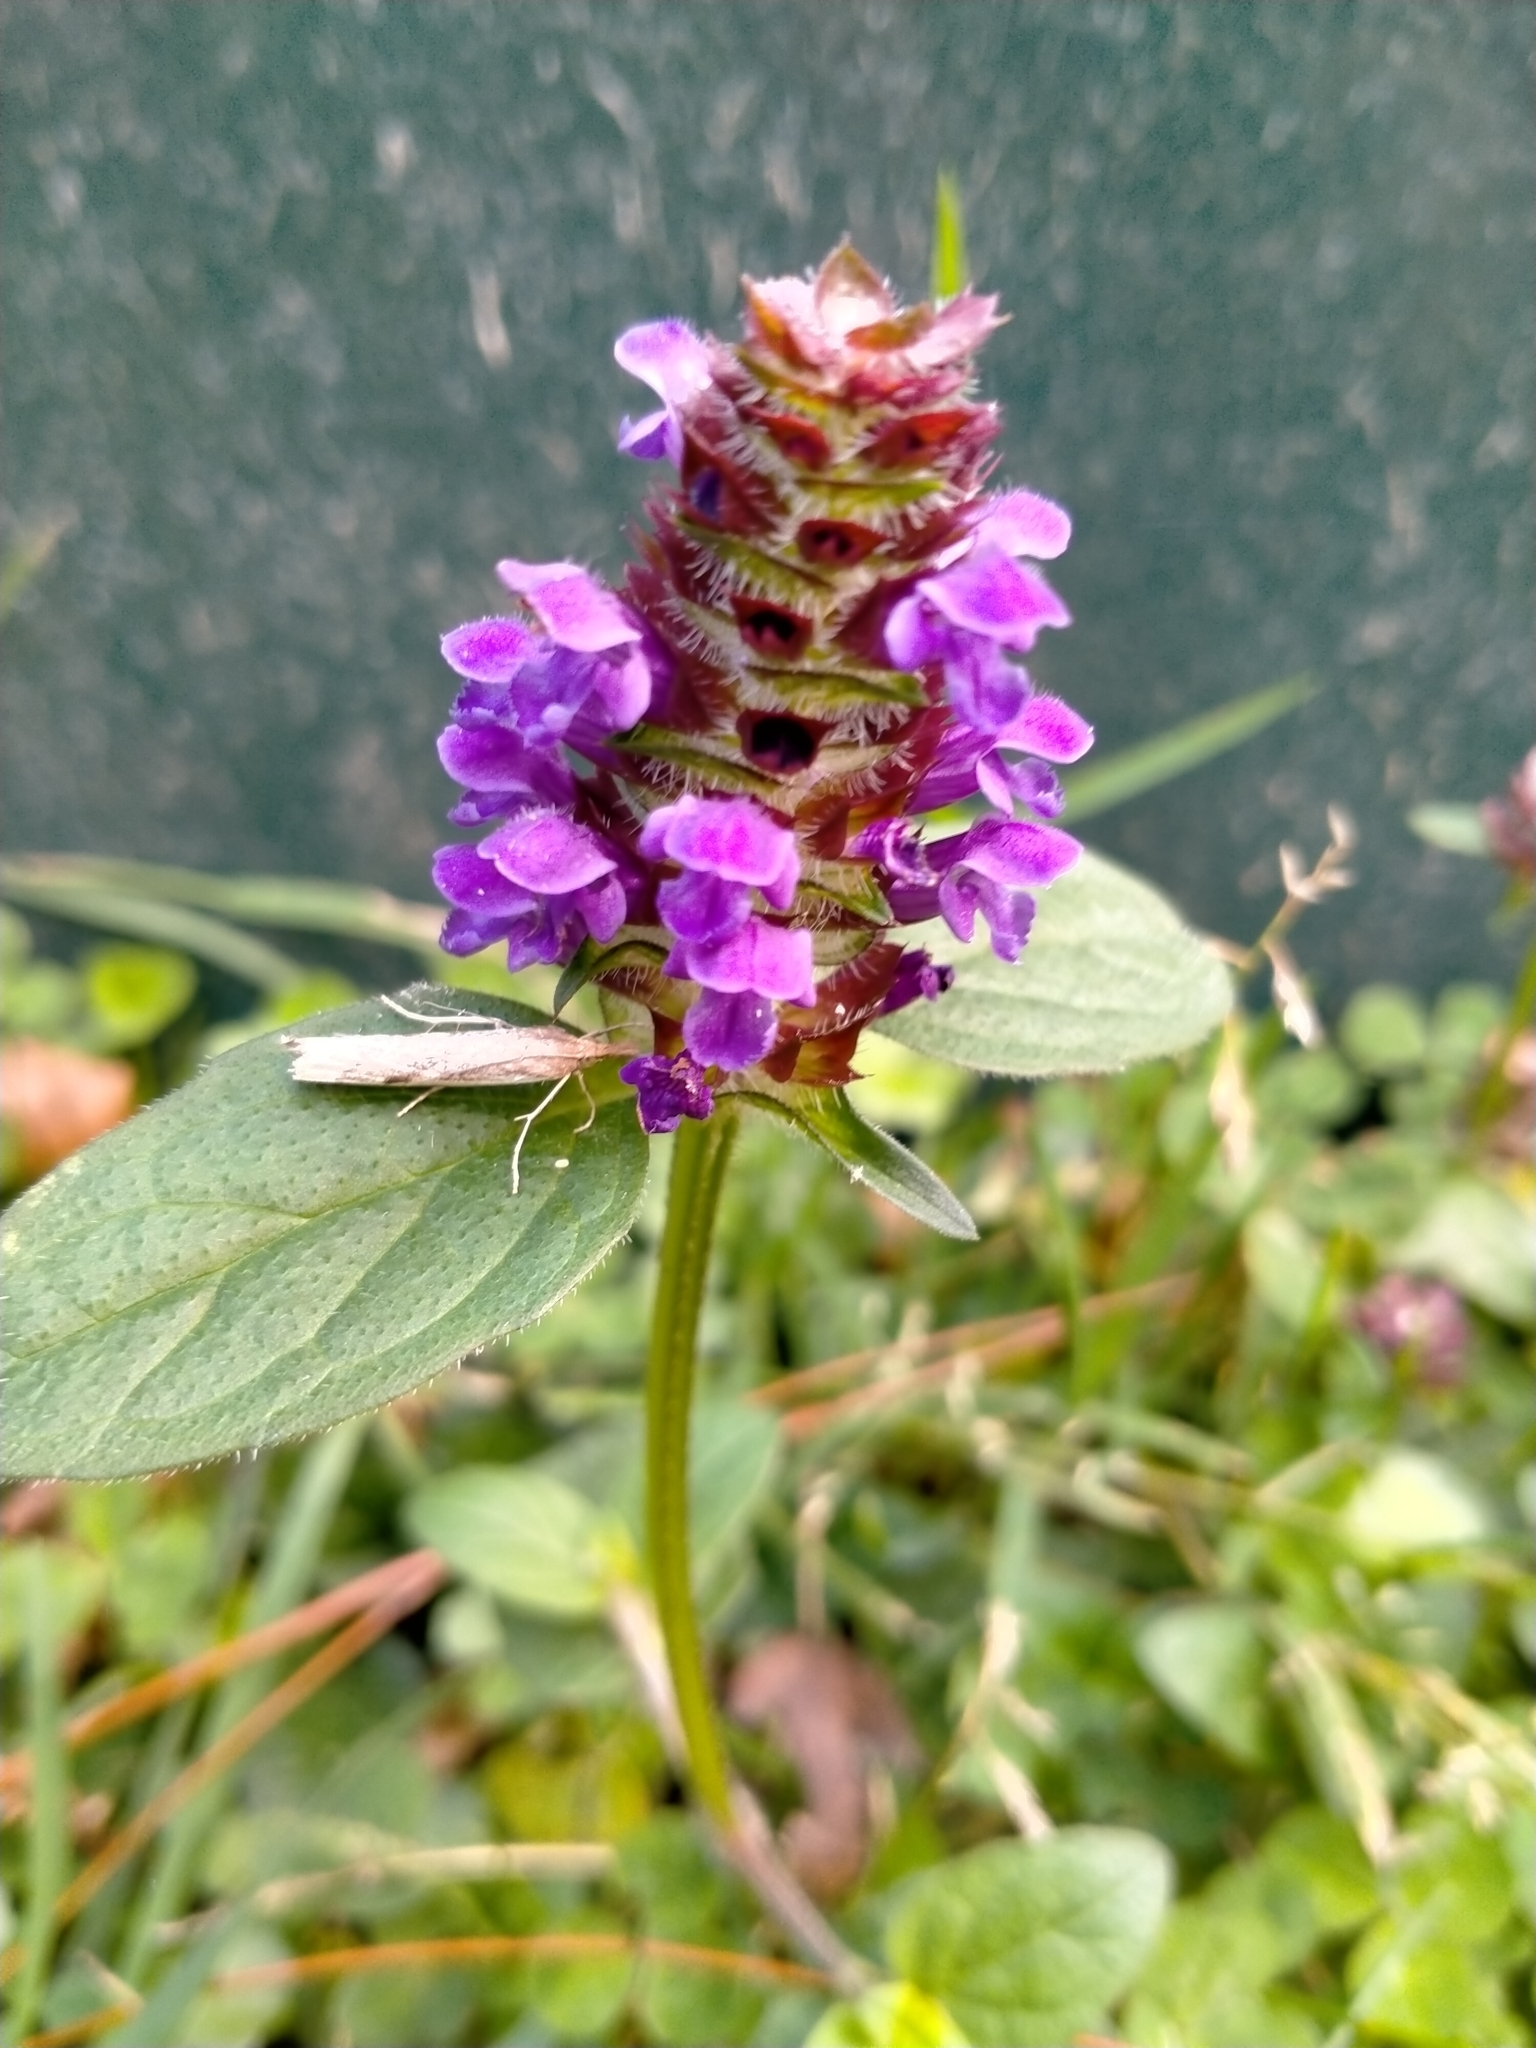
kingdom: Plantae
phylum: Tracheophyta
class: Magnoliopsida
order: Lamiales
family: Lamiaceae
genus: Prunella
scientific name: Prunella vulgaris
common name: Heal-all
